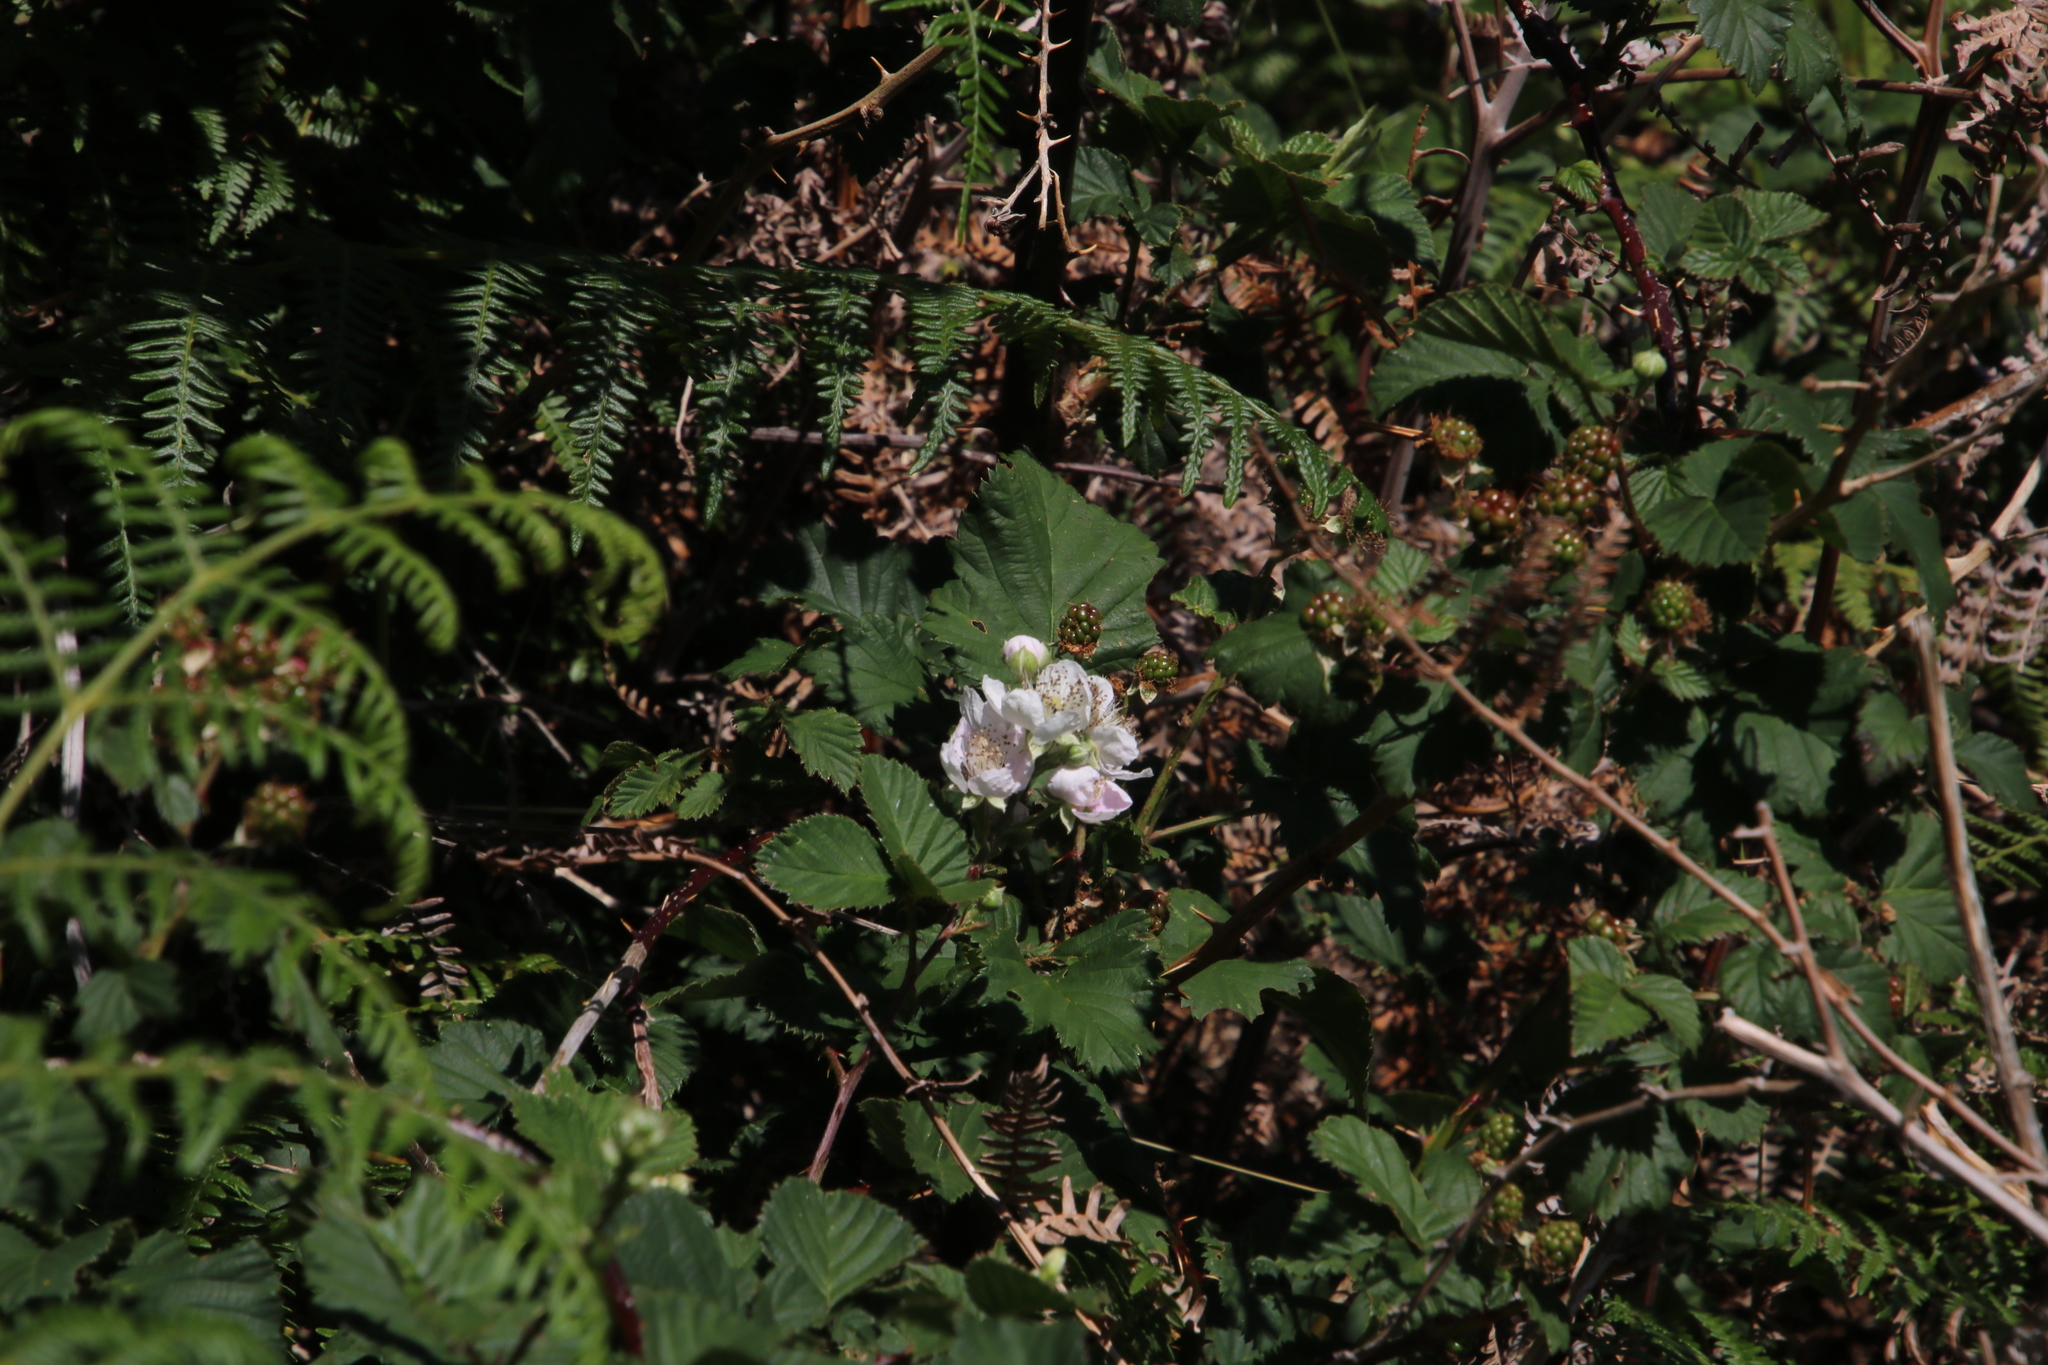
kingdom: Plantae
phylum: Tracheophyta
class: Magnoliopsida
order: Rosales
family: Rosaceae
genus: Rubus
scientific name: Rubus affinis
